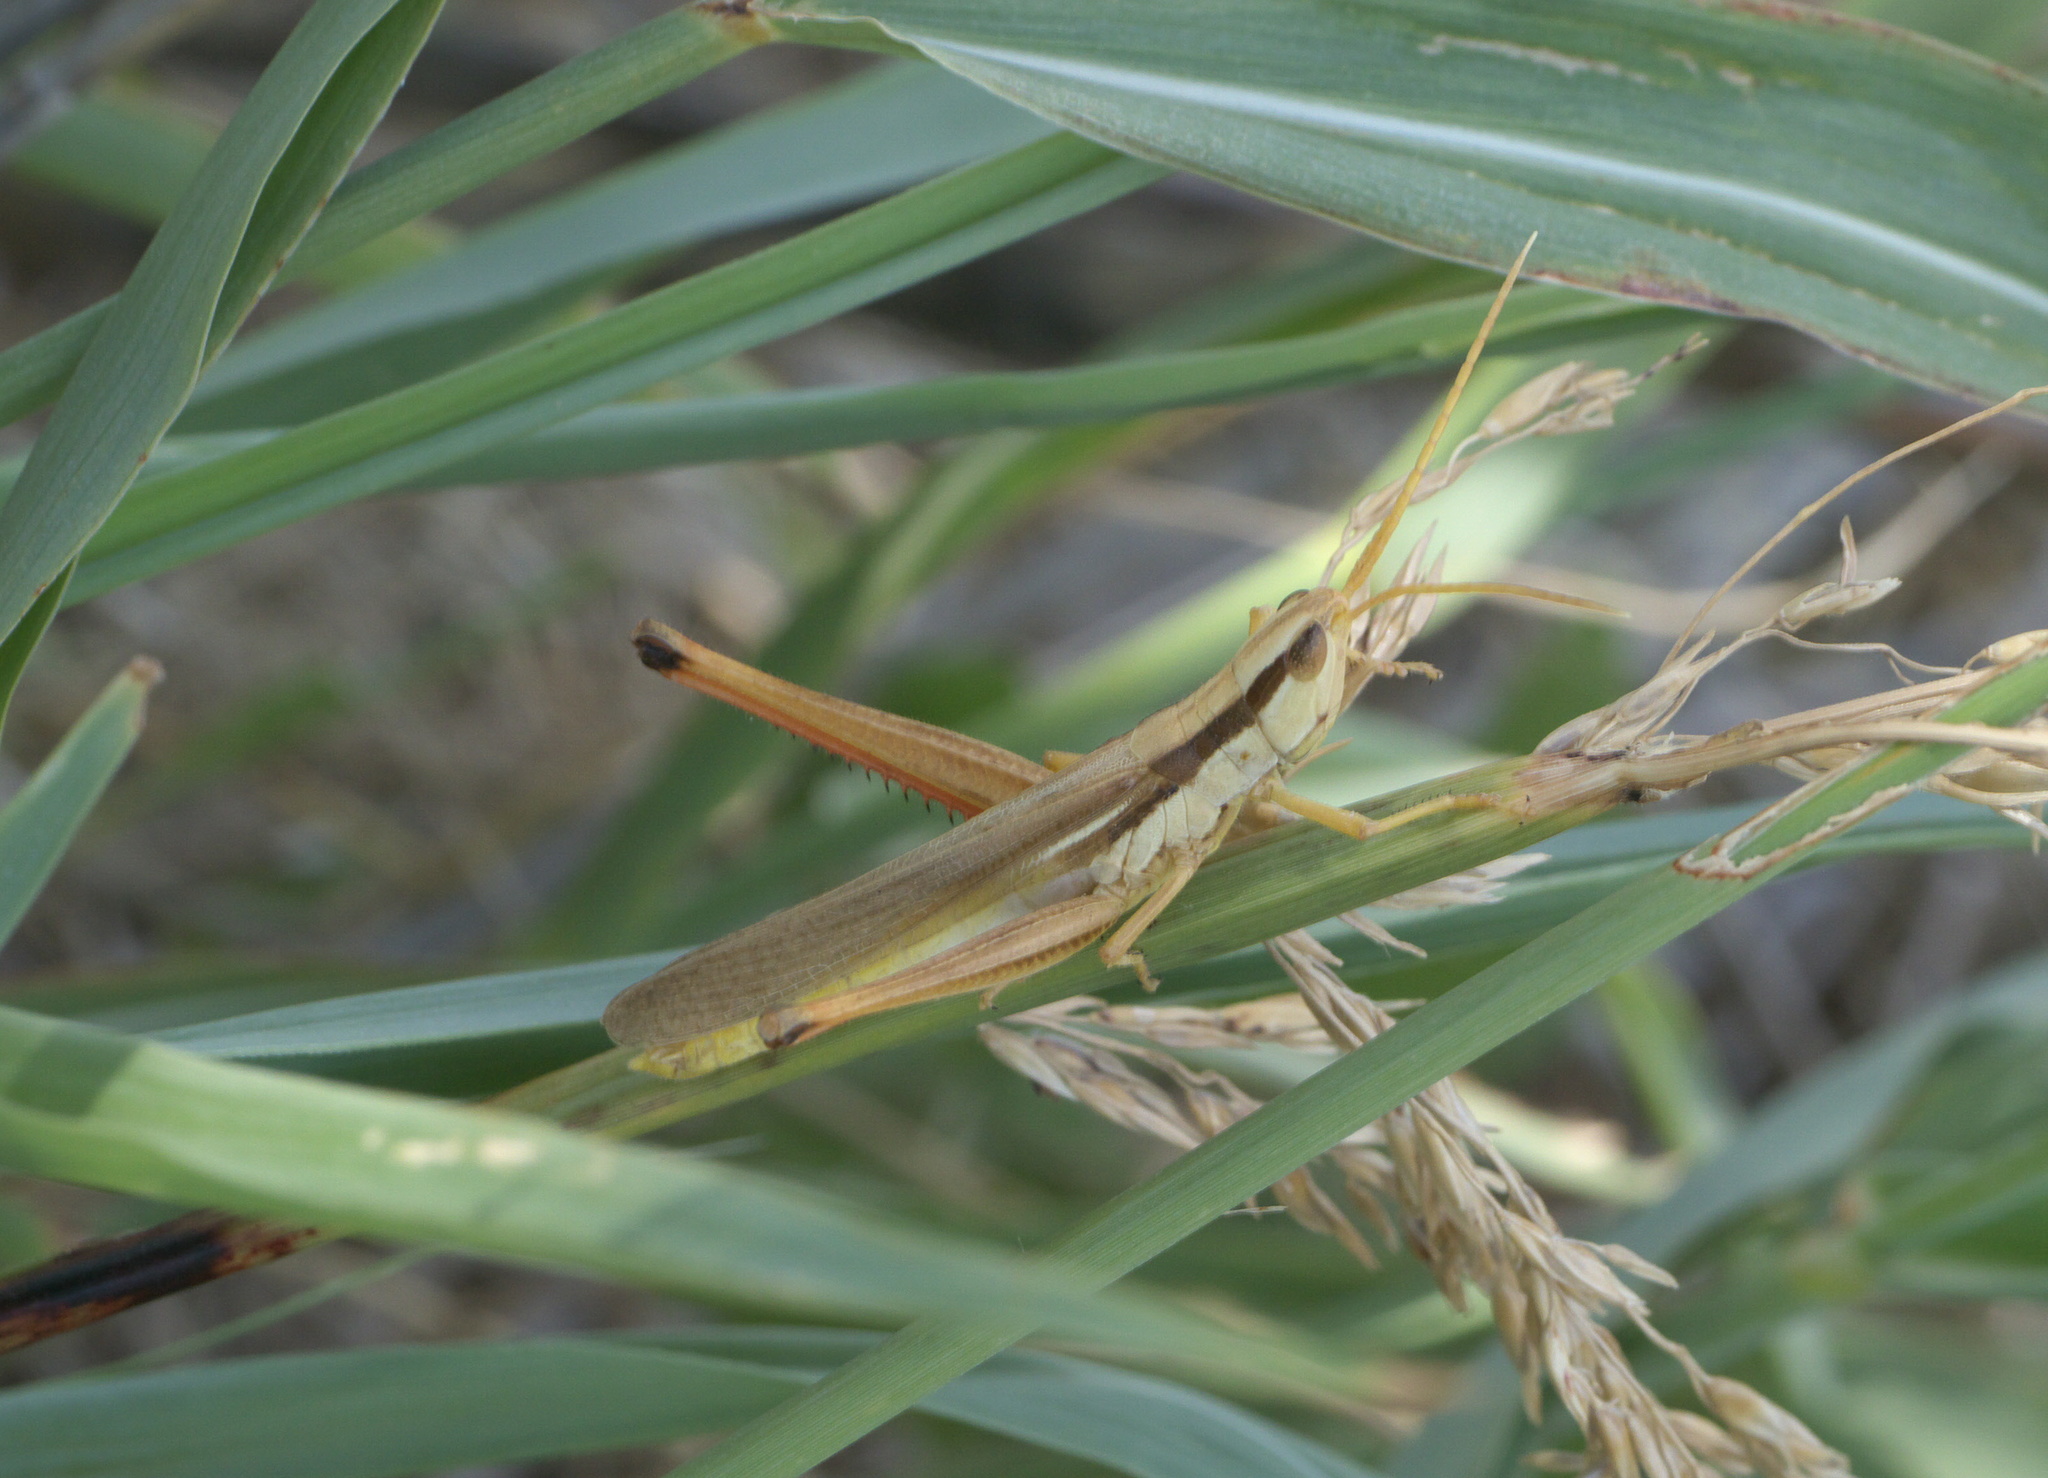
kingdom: Animalia
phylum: Arthropoda
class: Insecta
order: Orthoptera
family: Acrididae
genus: Mermiria
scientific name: Mermiria bivittata
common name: Two-striped mermiria grasshopper
